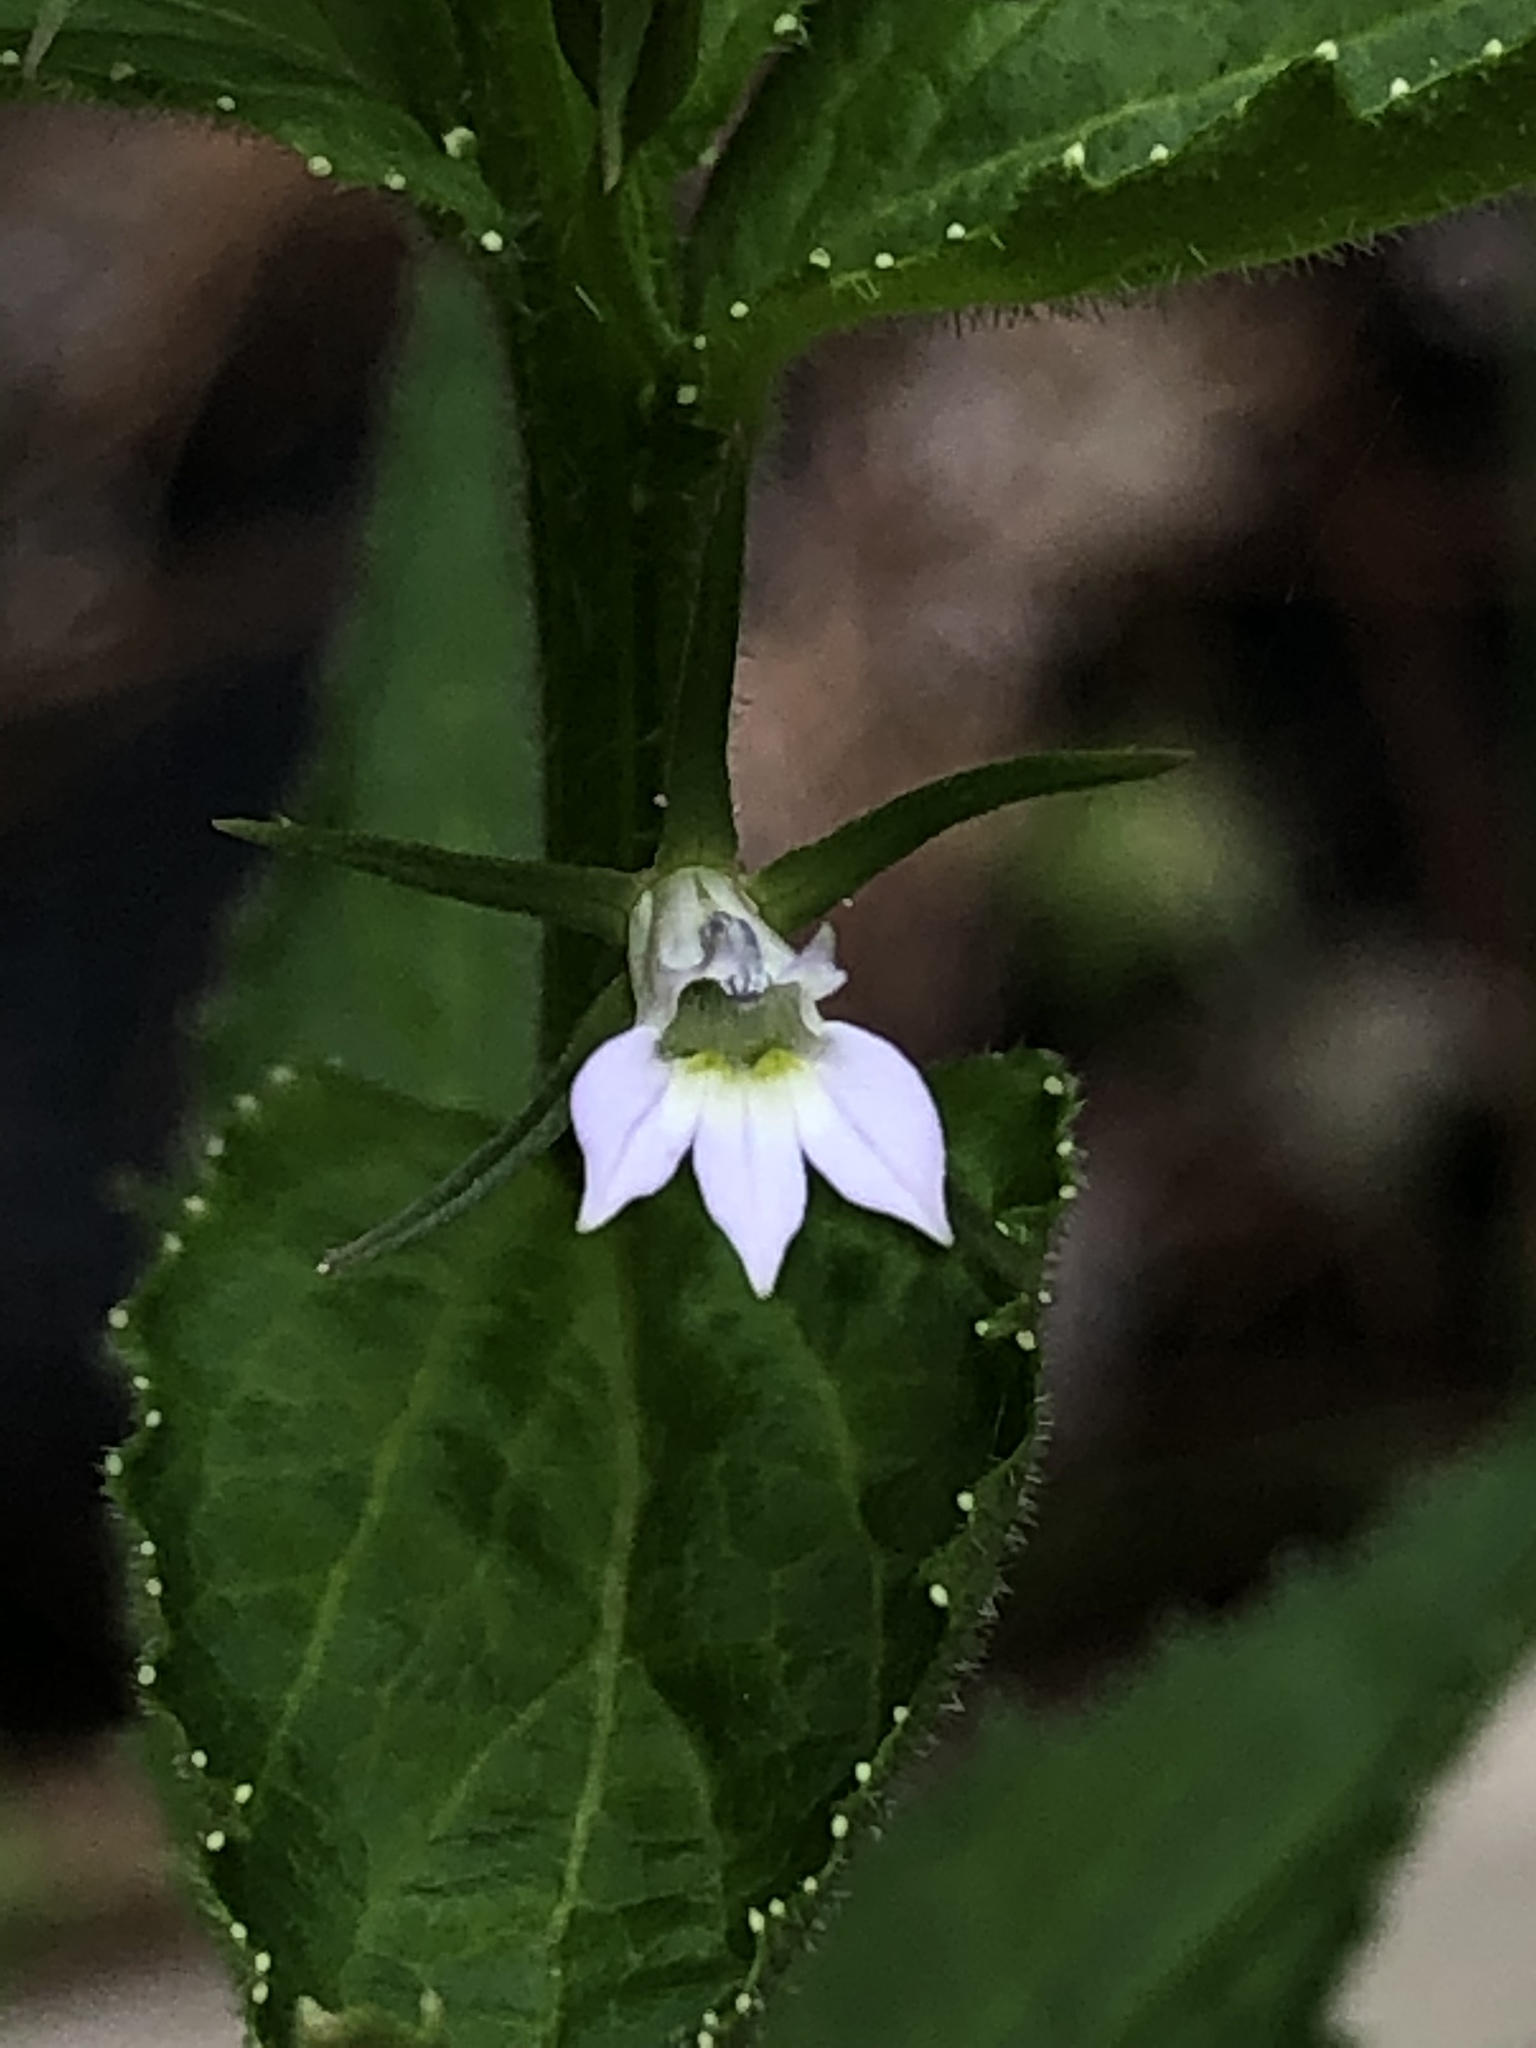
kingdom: Plantae
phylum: Tracheophyta
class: Magnoliopsida
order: Asterales
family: Campanulaceae
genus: Lobelia
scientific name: Lobelia inflata
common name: Indian tobacco
